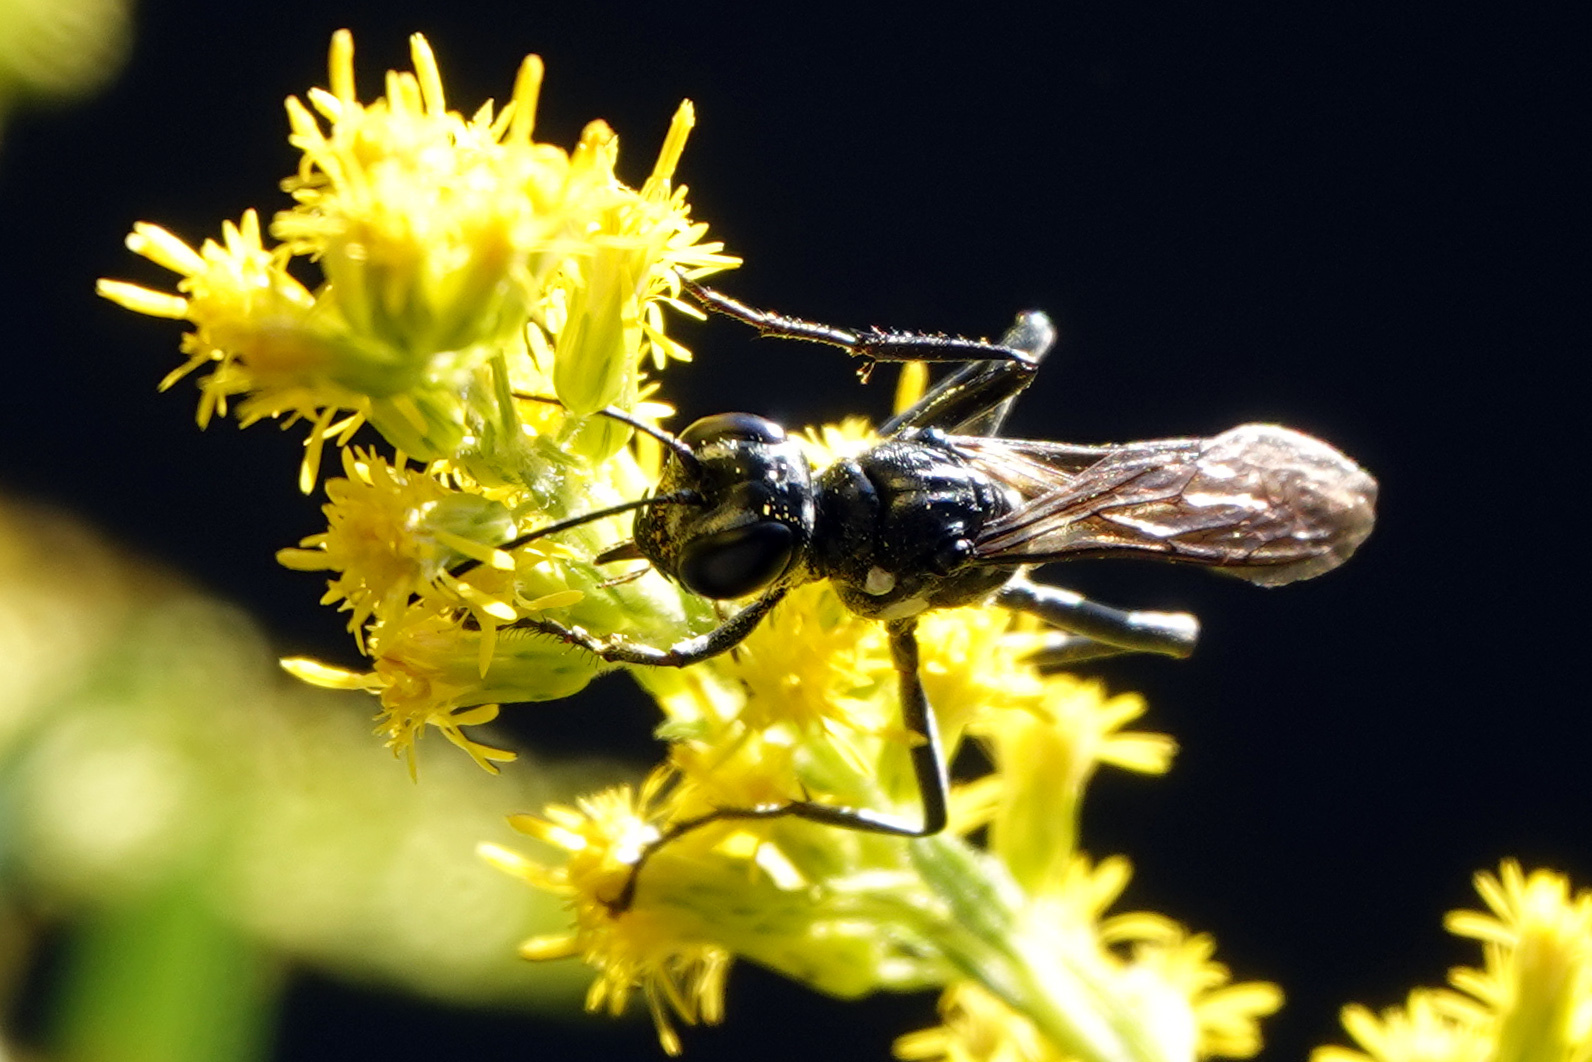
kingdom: Animalia
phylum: Arthropoda
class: Insecta
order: Hymenoptera
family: Sphecidae
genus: Eremnophila
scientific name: Eremnophila aureonotata
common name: Gold-marked thread-waisted wasp
